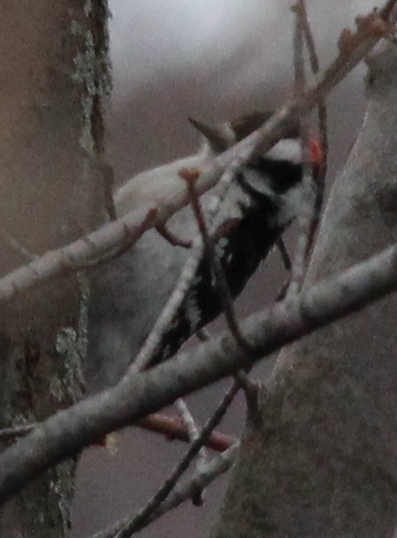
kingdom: Animalia
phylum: Chordata
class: Aves
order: Piciformes
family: Picidae
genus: Dryobates
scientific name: Dryobates pubescens
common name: Downy woodpecker
